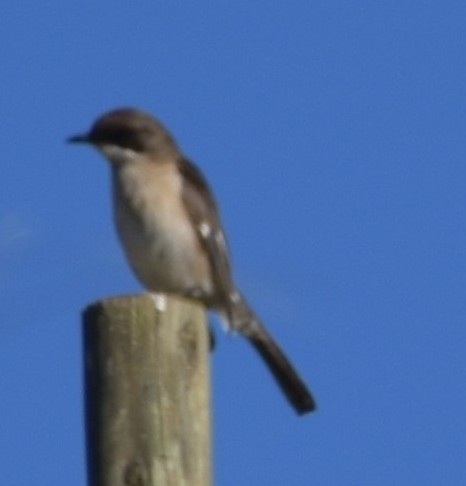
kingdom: Animalia
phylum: Chordata
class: Aves
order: Passeriformes
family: Muscicapidae
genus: Sigelus
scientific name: Sigelus silens
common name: Fiscal flycatcher
